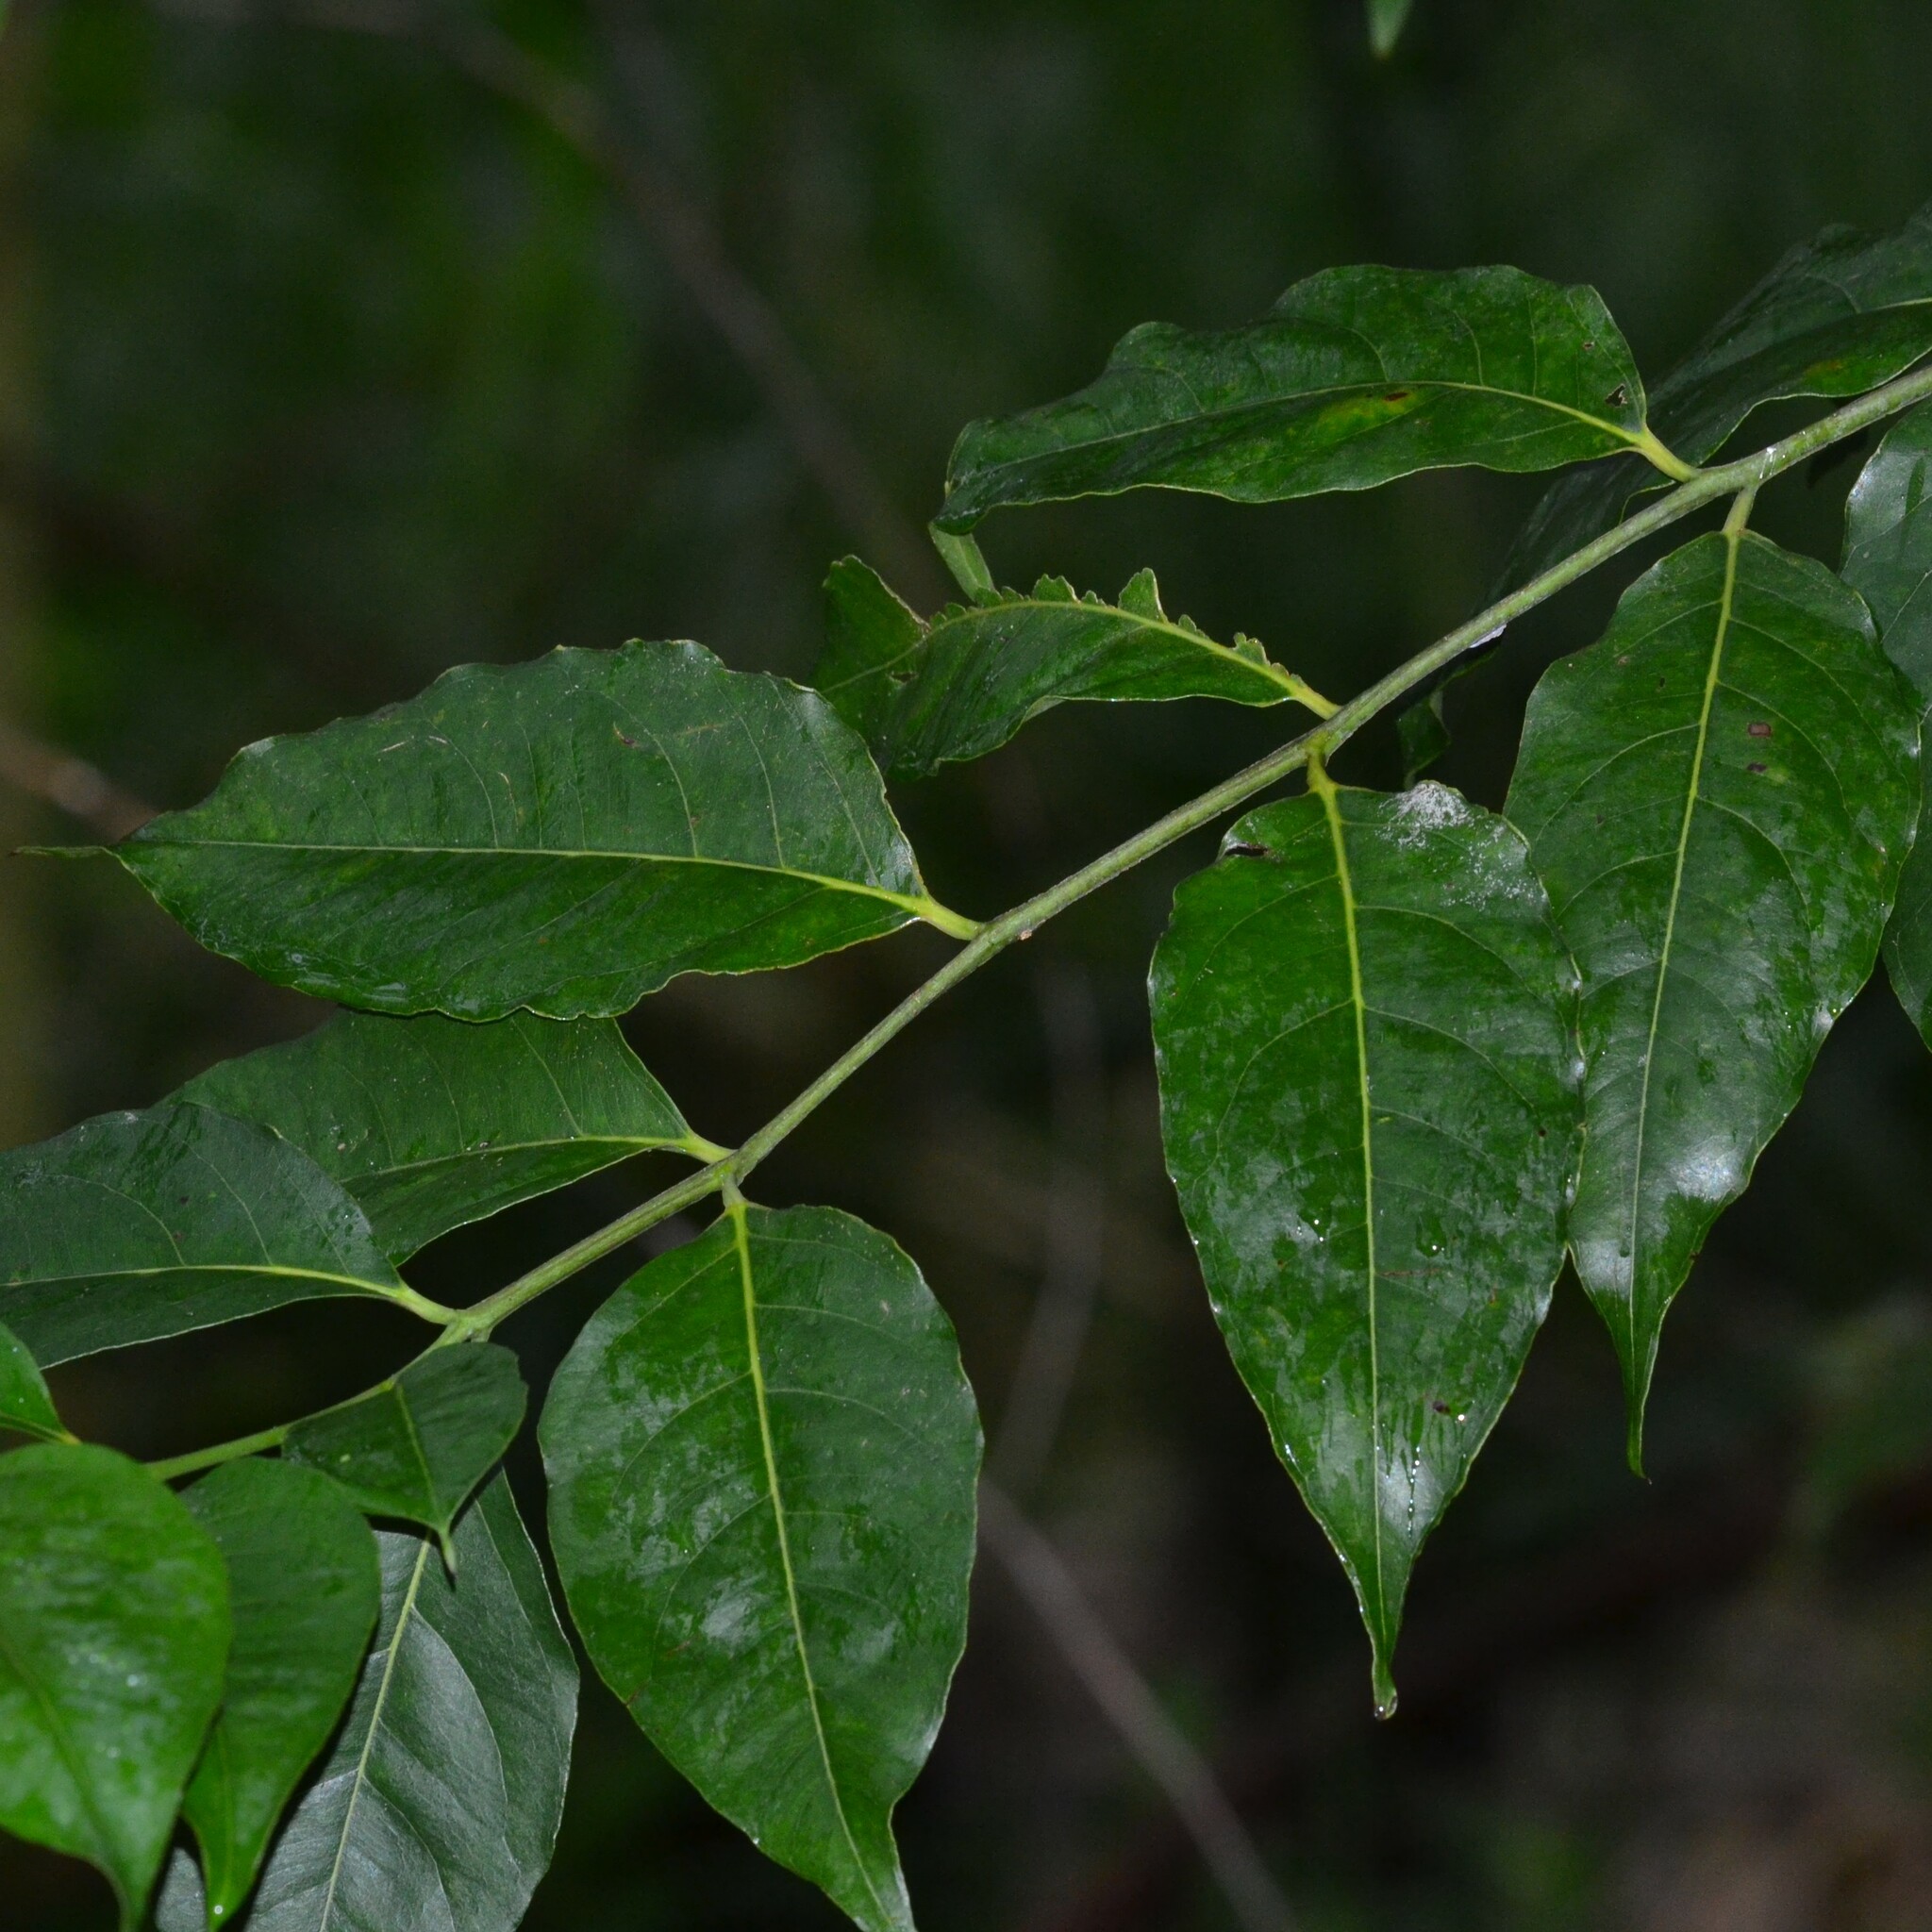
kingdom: Plantae
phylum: Tracheophyta
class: Magnoliopsida
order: Myrtales
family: Myrtaceae
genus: Eucalyptus
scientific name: Eucalyptus deglupta
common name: Mindanao gum
